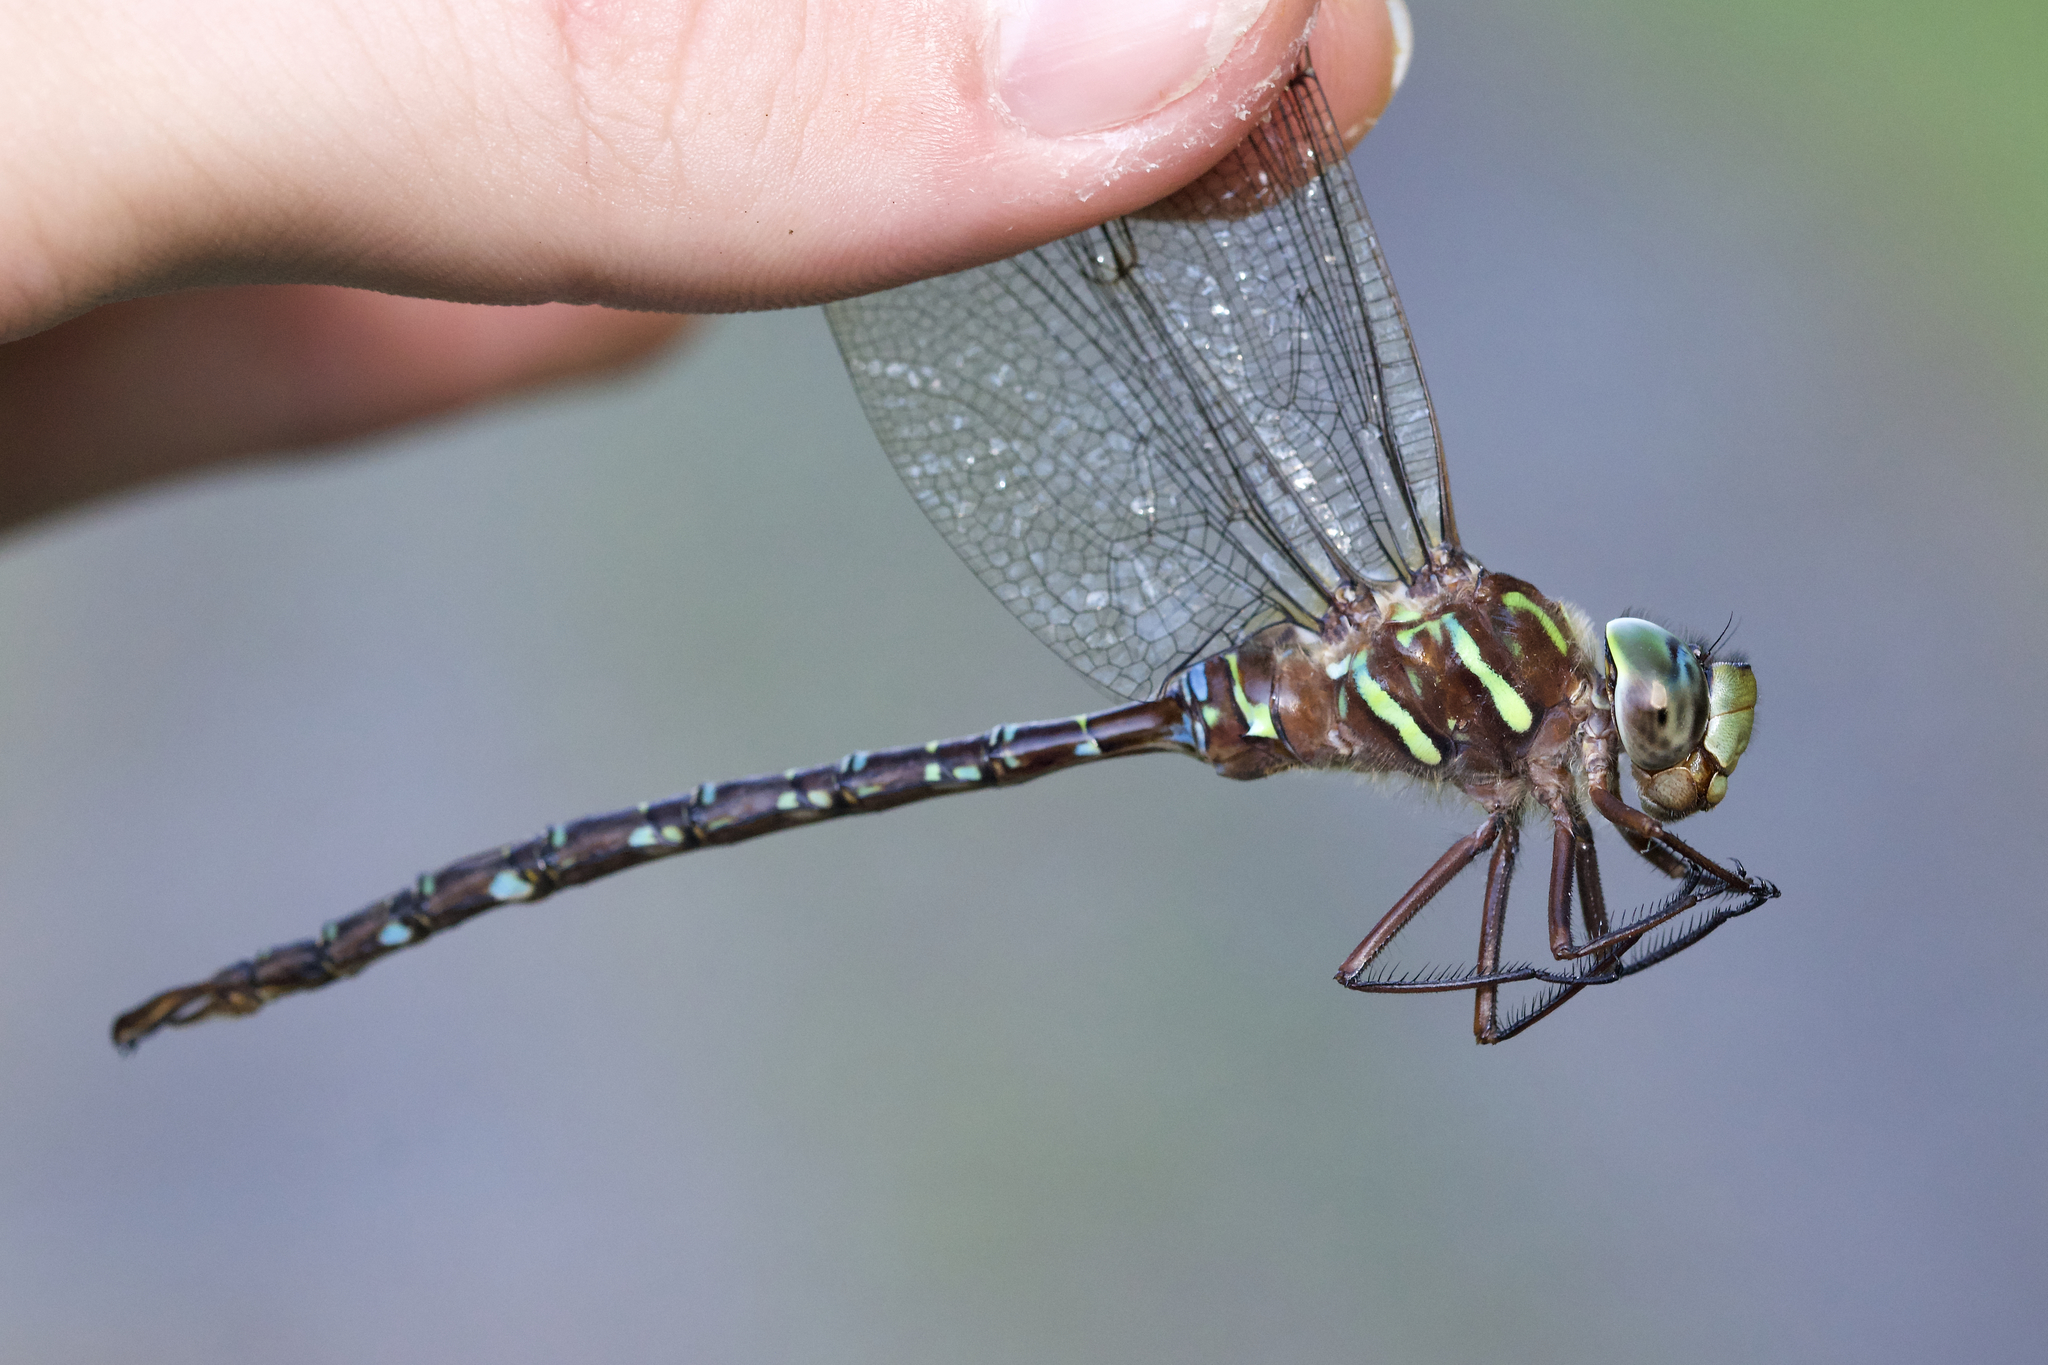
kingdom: Animalia
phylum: Arthropoda
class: Insecta
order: Odonata
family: Aeshnidae
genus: Aeshna
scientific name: Aeshna umbrosa
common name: Shadow darner
